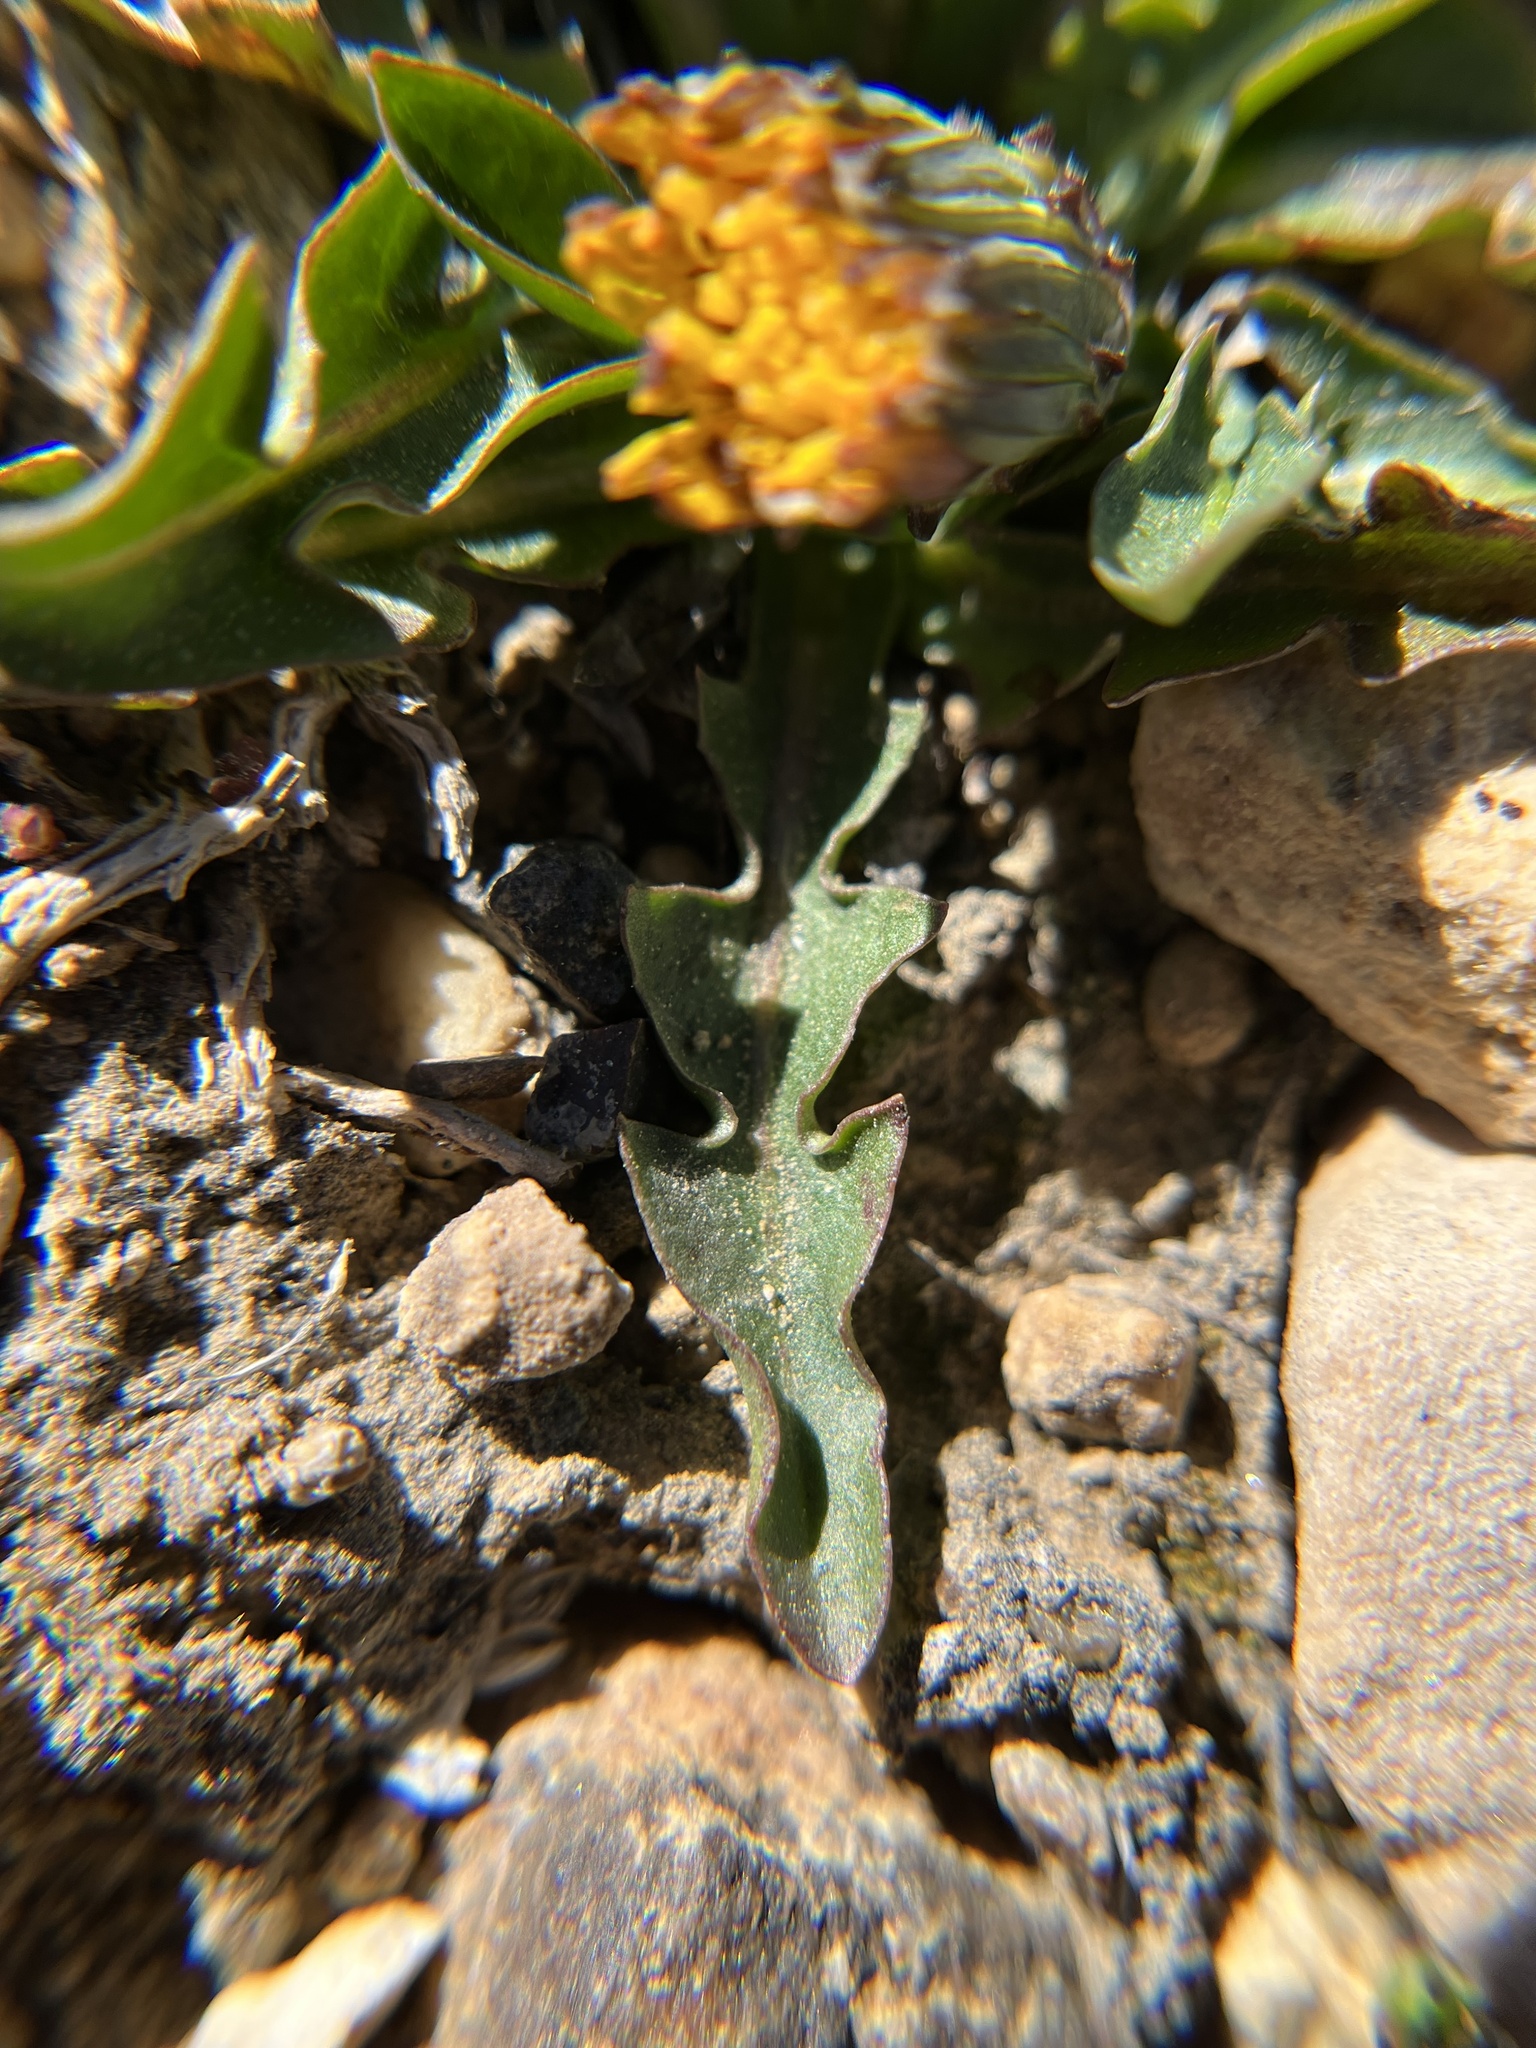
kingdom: Plantae
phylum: Tracheophyta
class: Magnoliopsida
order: Asterales
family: Asteraceae
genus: Taraxacum
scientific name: Taraxacum ceratophorum
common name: Horn-bearing dandelion
